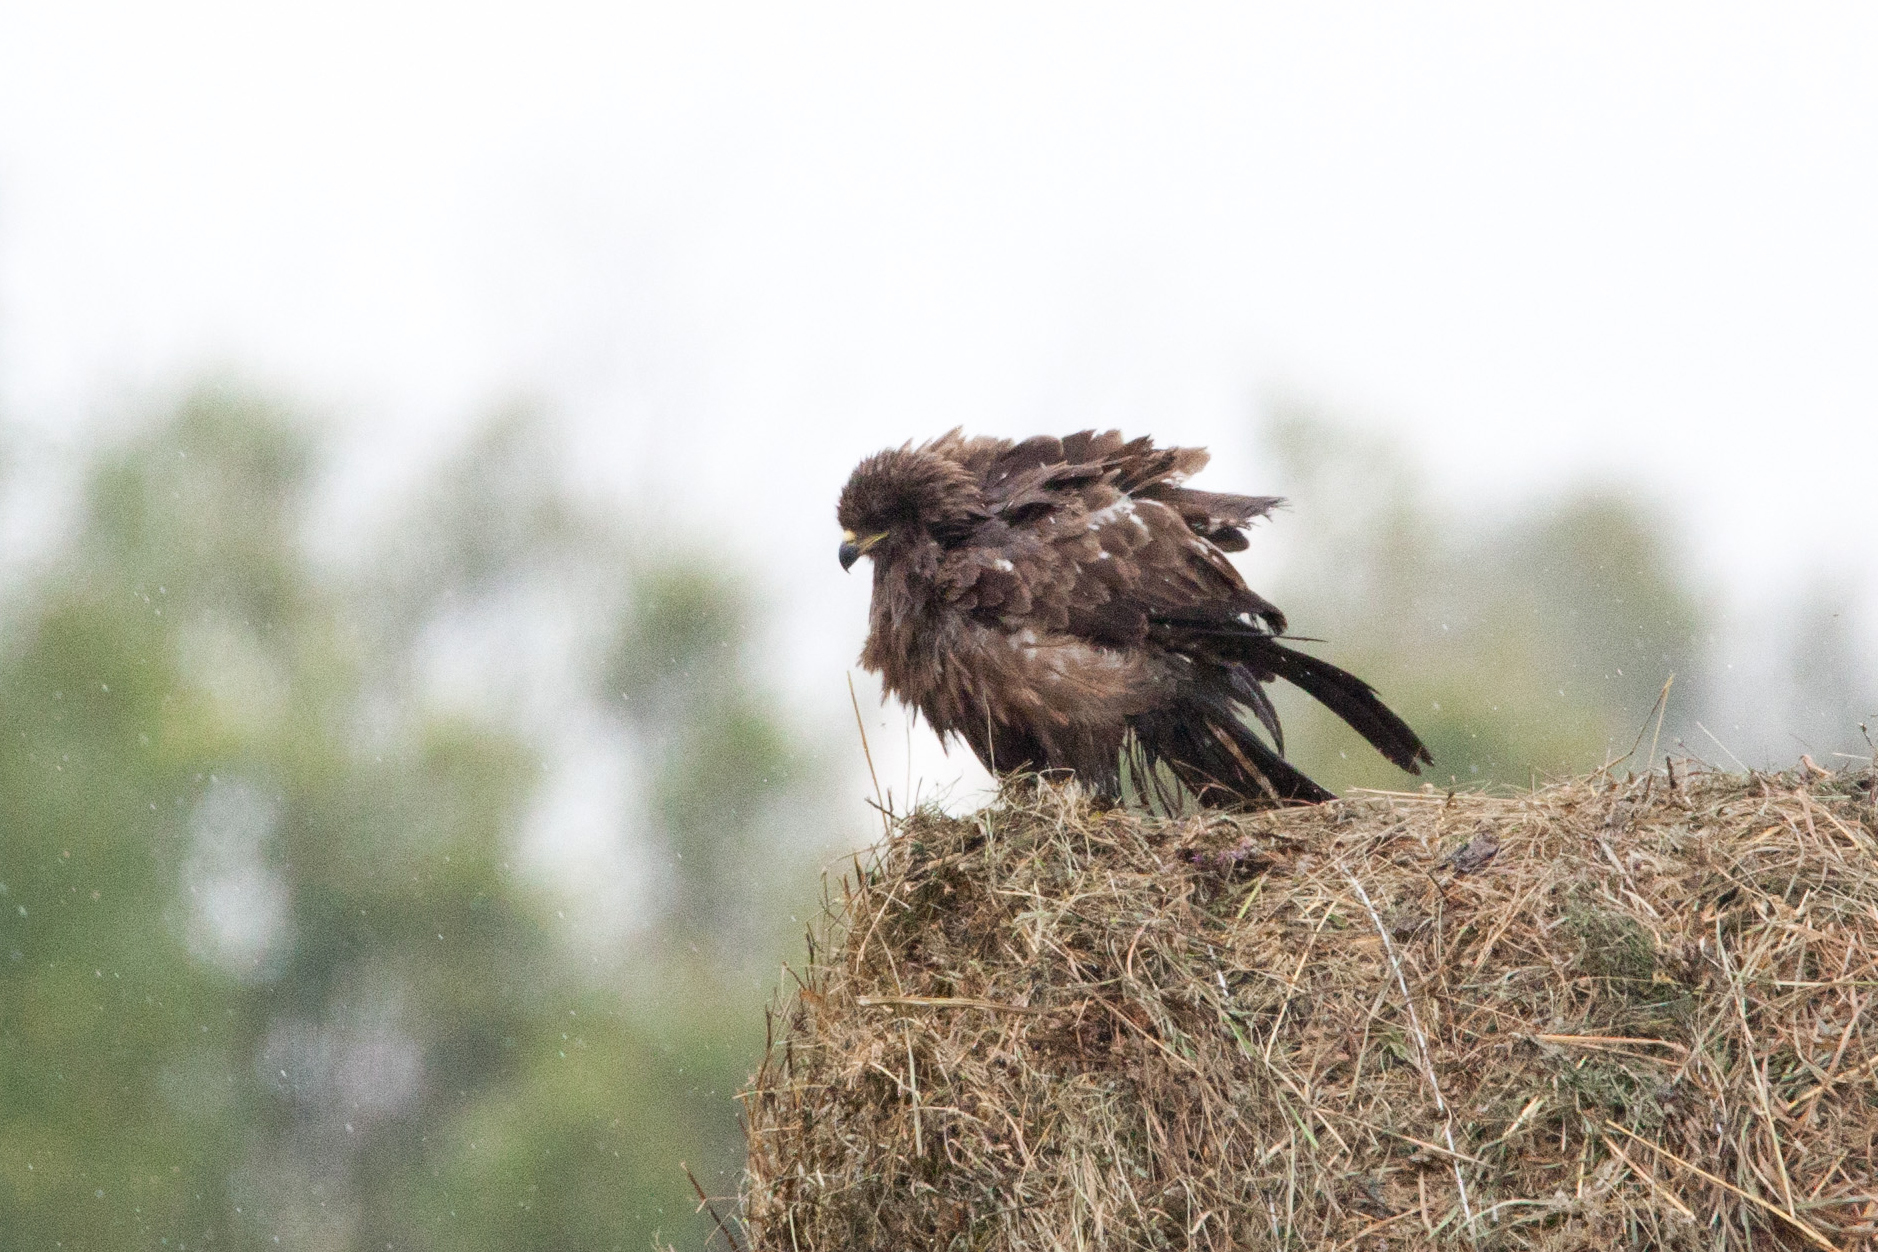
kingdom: Animalia
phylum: Chordata
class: Aves
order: Accipitriformes
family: Accipitridae
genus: Milvus
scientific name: Milvus migrans
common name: Black kite
